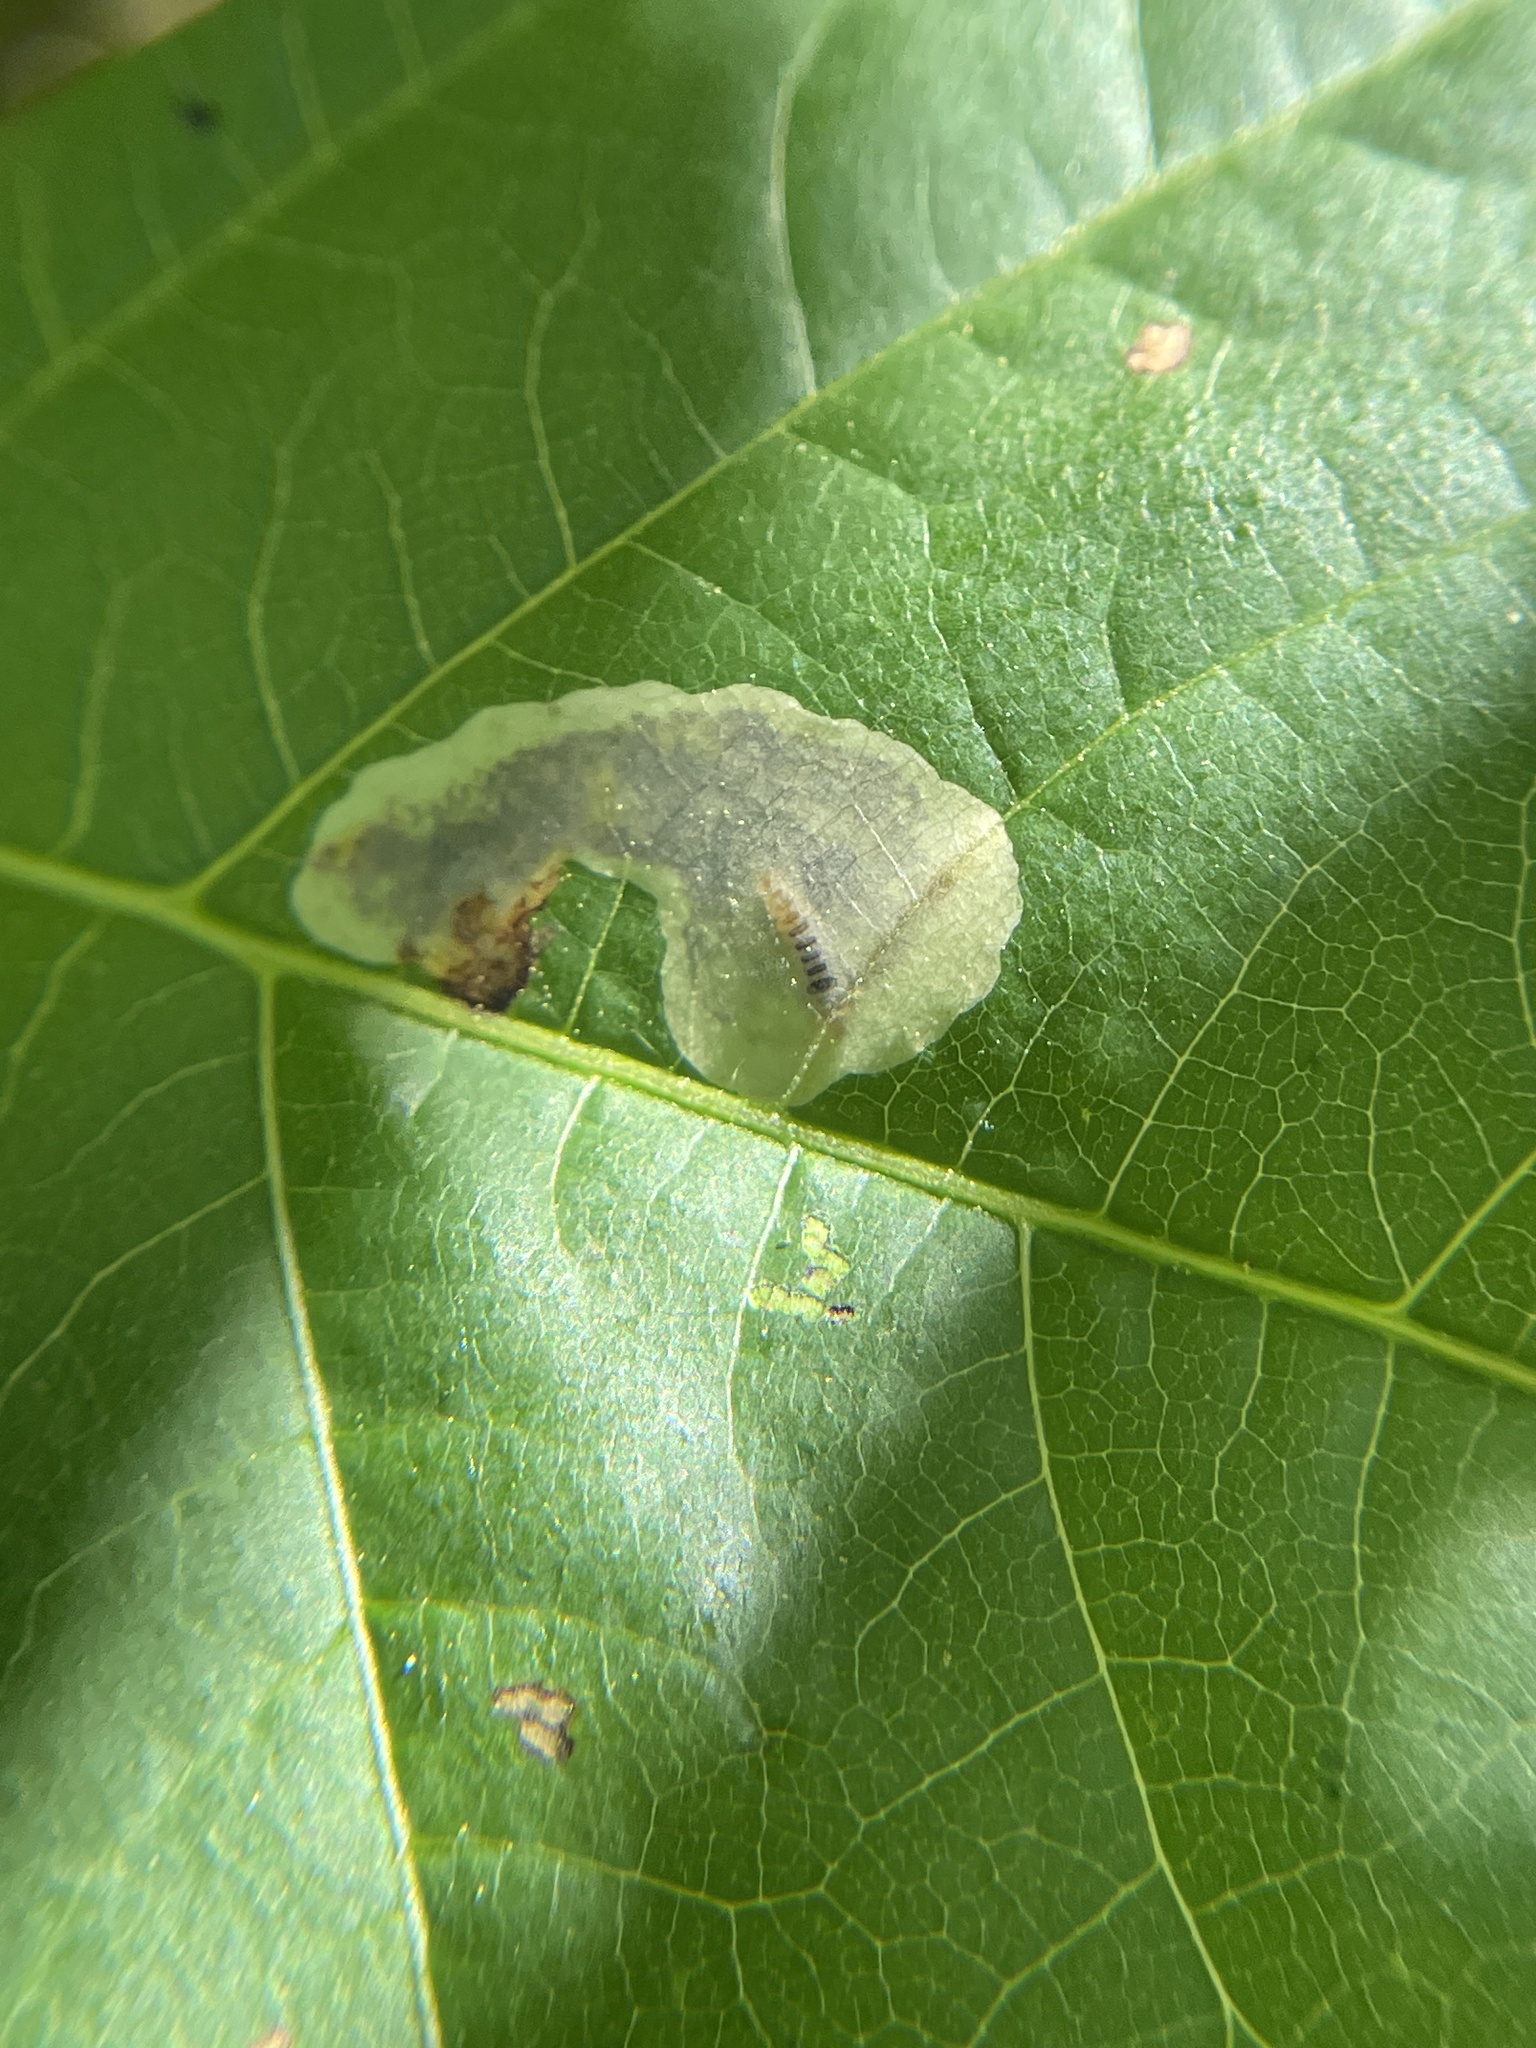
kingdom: Animalia
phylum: Arthropoda
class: Insecta
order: Lepidoptera
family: Gracillariidae
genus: Cameraria
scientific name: Cameraria caryaefoliella
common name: Pecan leafminer moth
